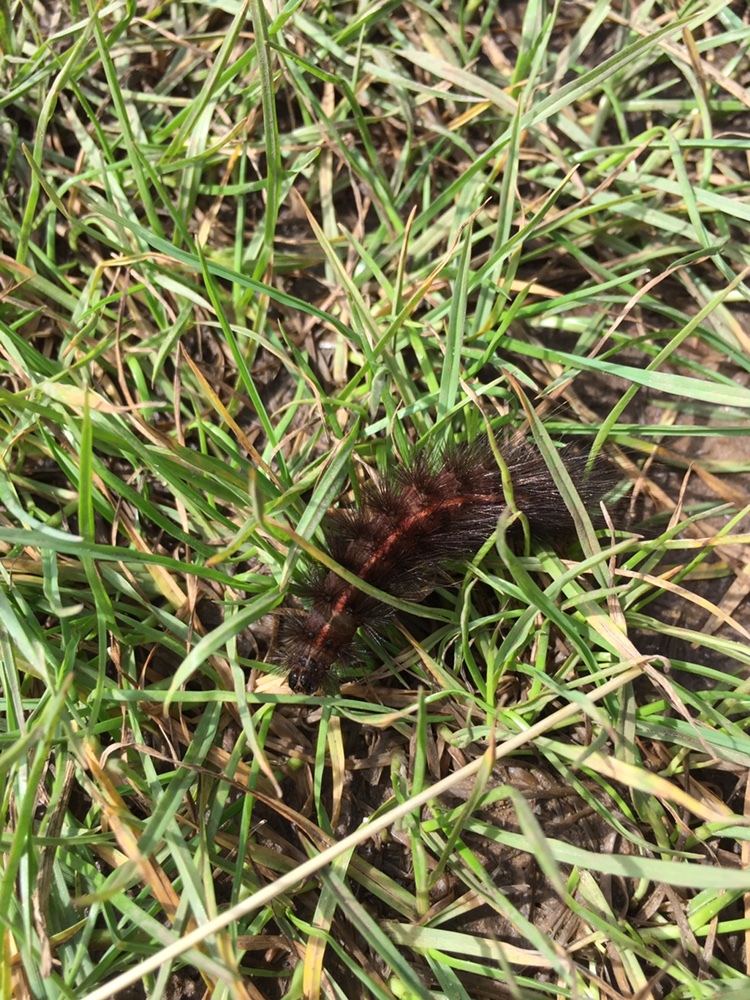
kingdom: Animalia
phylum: Arthropoda
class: Insecta
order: Lepidoptera
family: Erebidae
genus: Spilosoma
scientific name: Spilosoma lubricipeda
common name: White ermine
